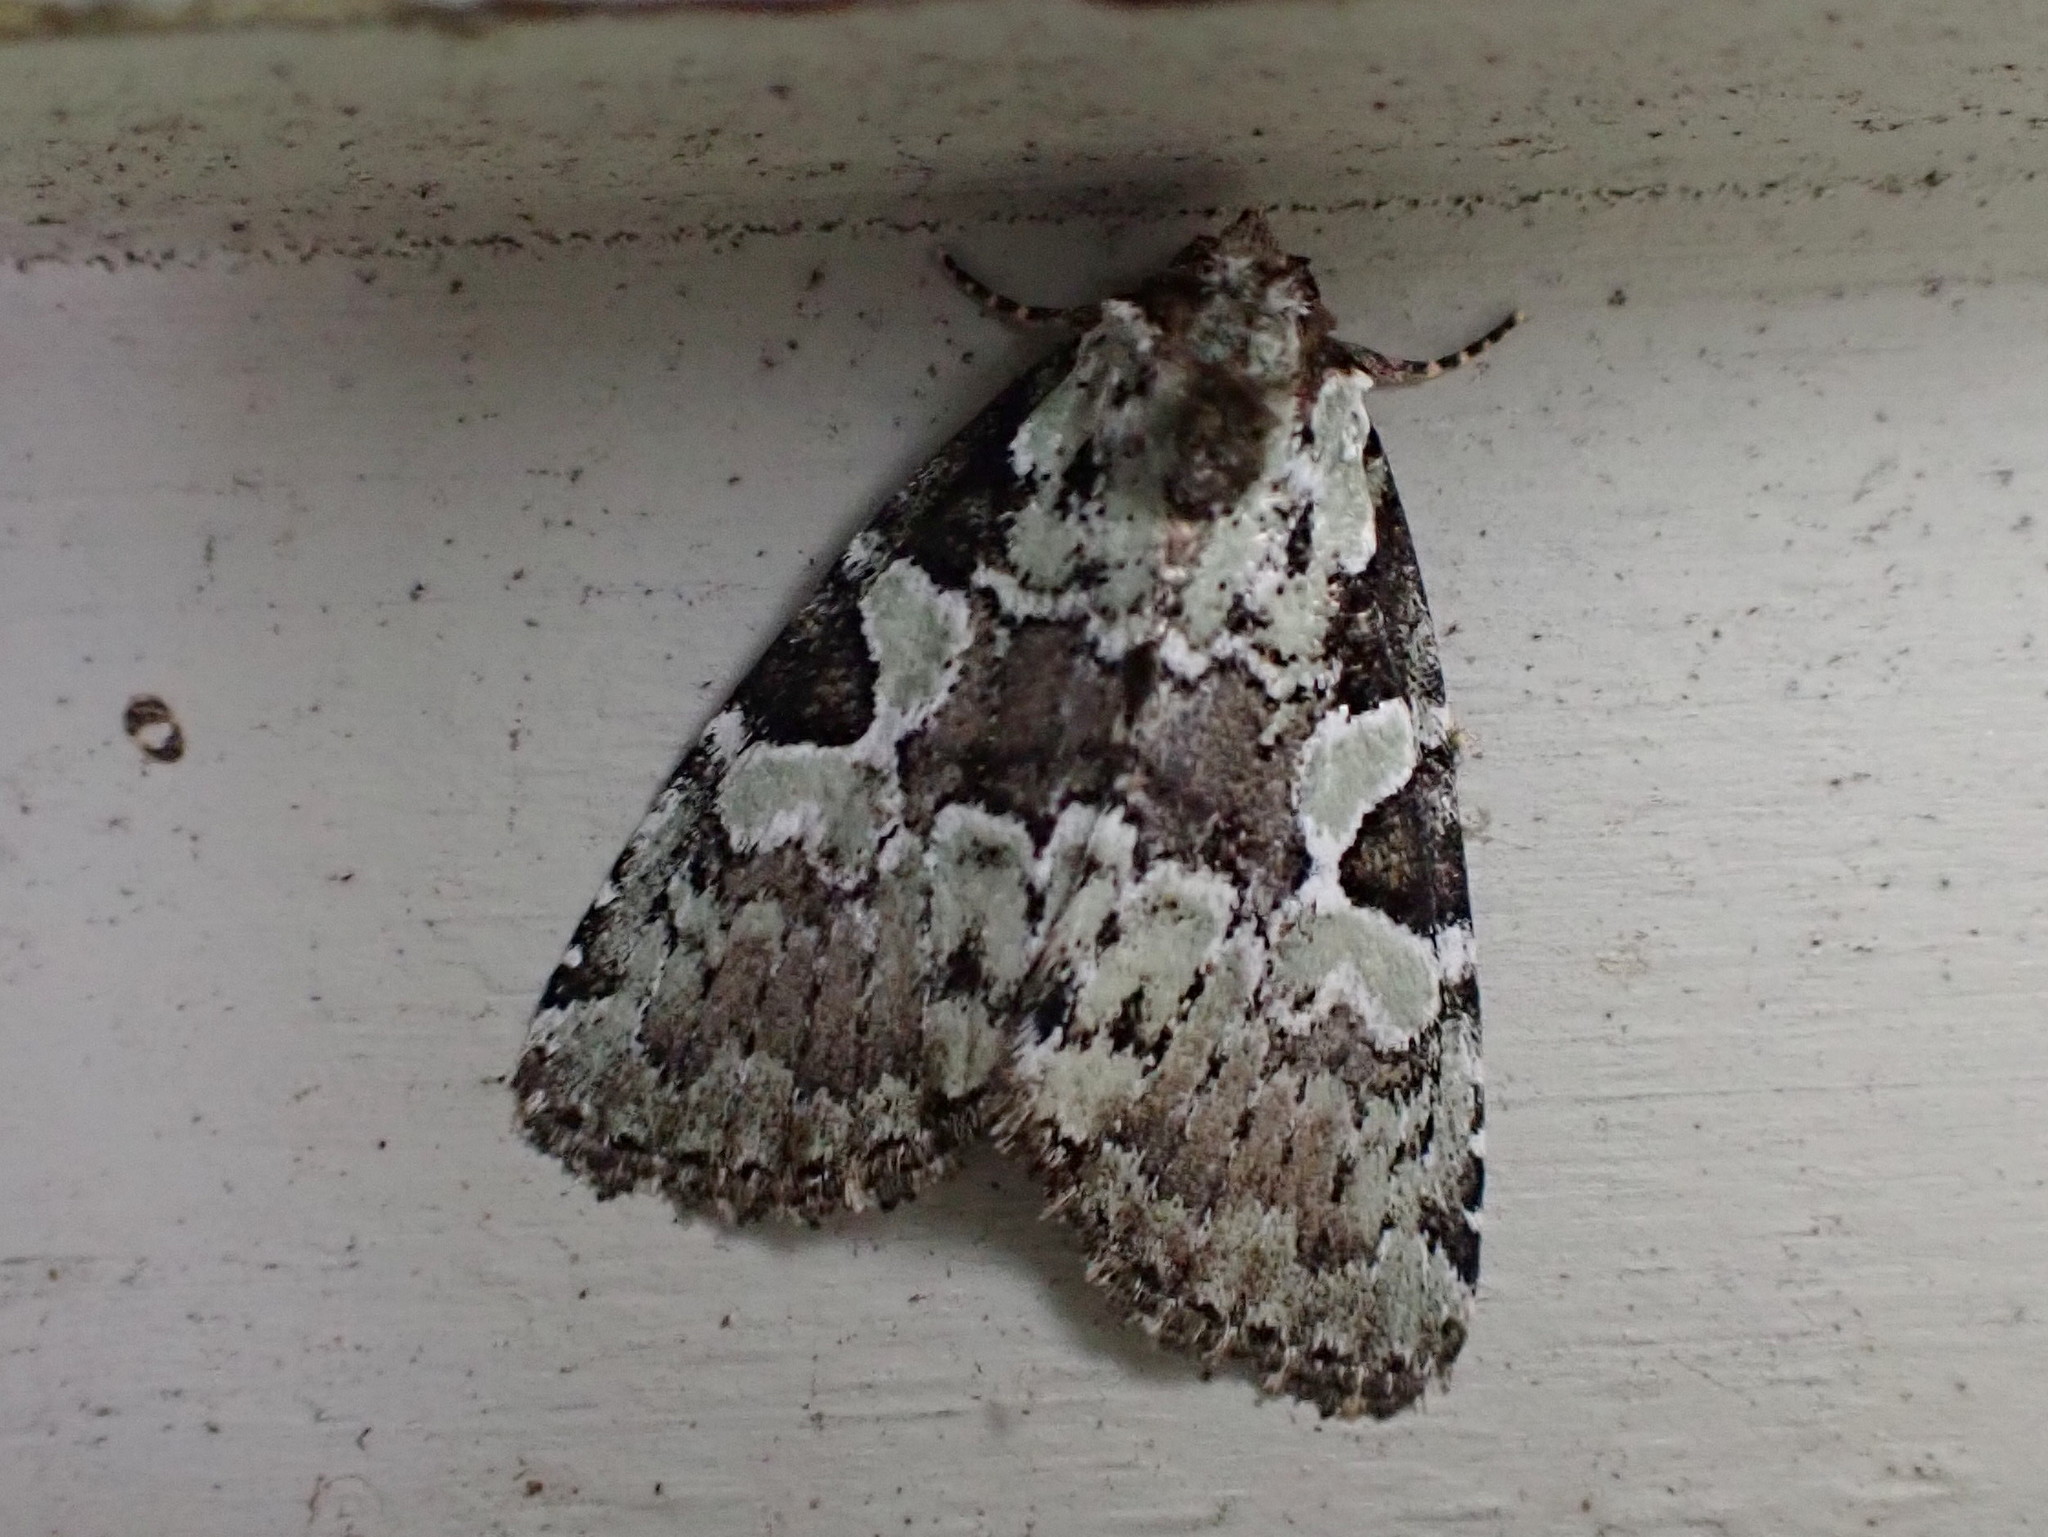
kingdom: Animalia
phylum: Arthropoda
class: Insecta
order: Lepidoptera
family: Noctuidae
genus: Leuconycta
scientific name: Leuconycta lepidula
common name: Marbled-green leuconycta moth
